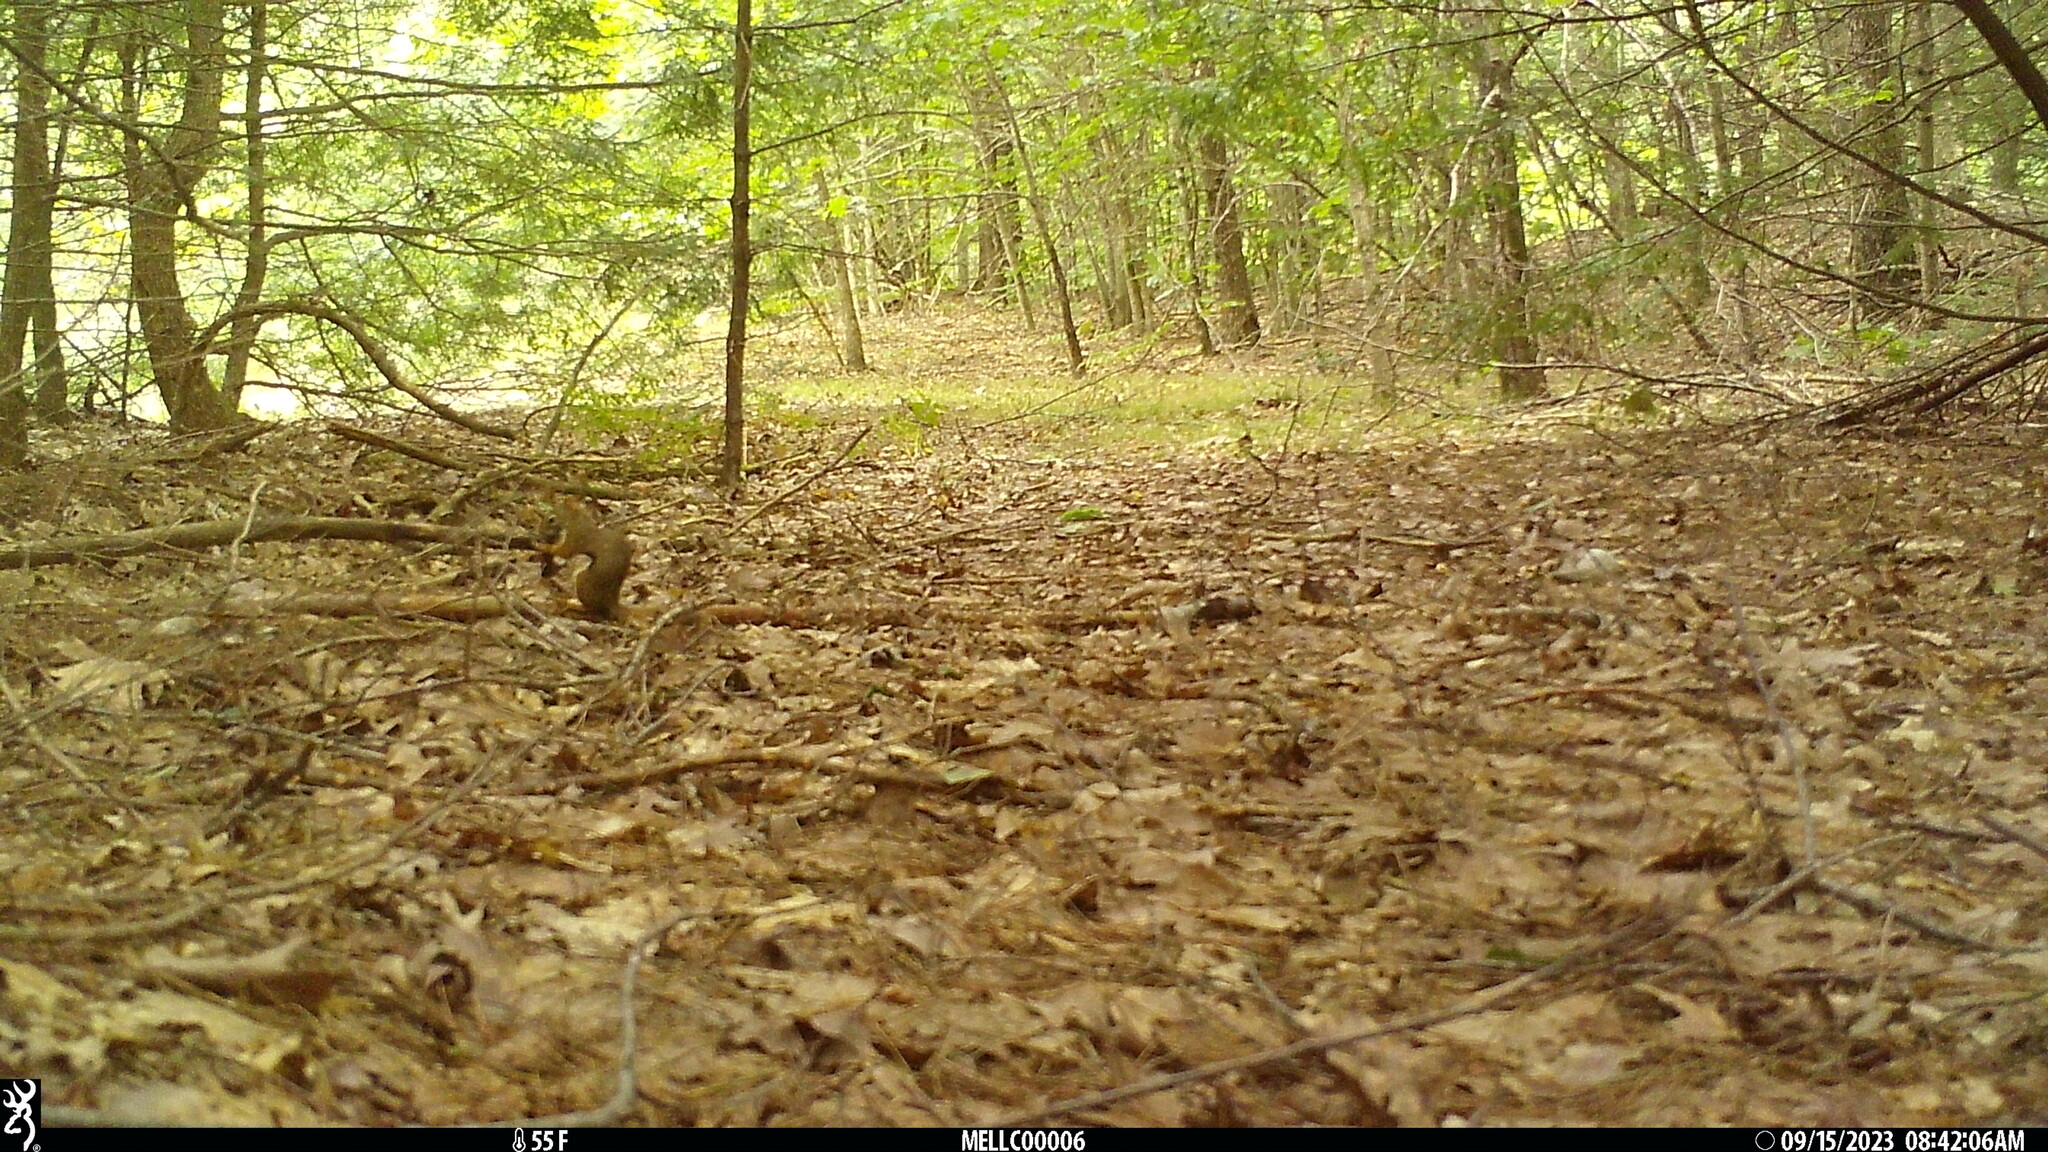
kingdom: Animalia
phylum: Chordata
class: Mammalia
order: Rodentia
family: Sciuridae
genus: Tamiasciurus
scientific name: Tamiasciurus hudsonicus
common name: Red squirrel
